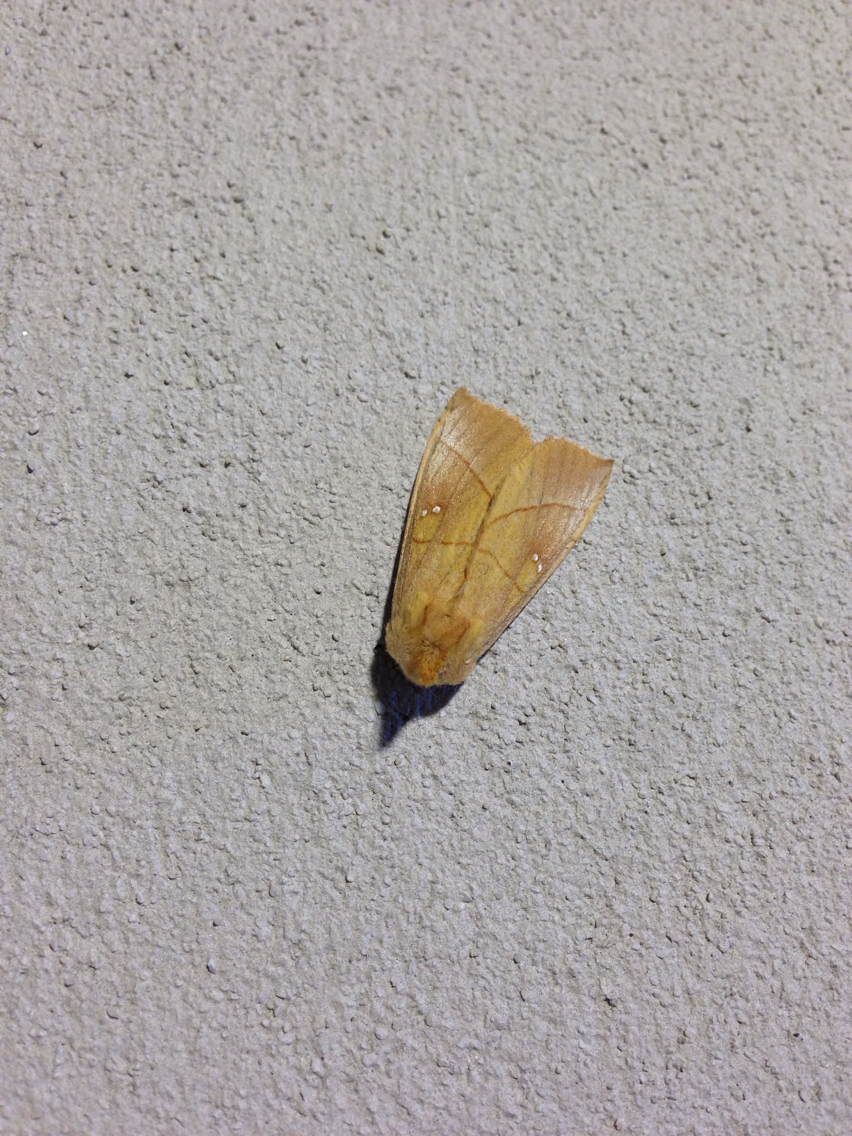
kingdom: Animalia
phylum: Arthropoda
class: Insecta
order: Lepidoptera
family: Notodontidae
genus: Nadata
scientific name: Nadata gibbosa
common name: White-dotted prominent
